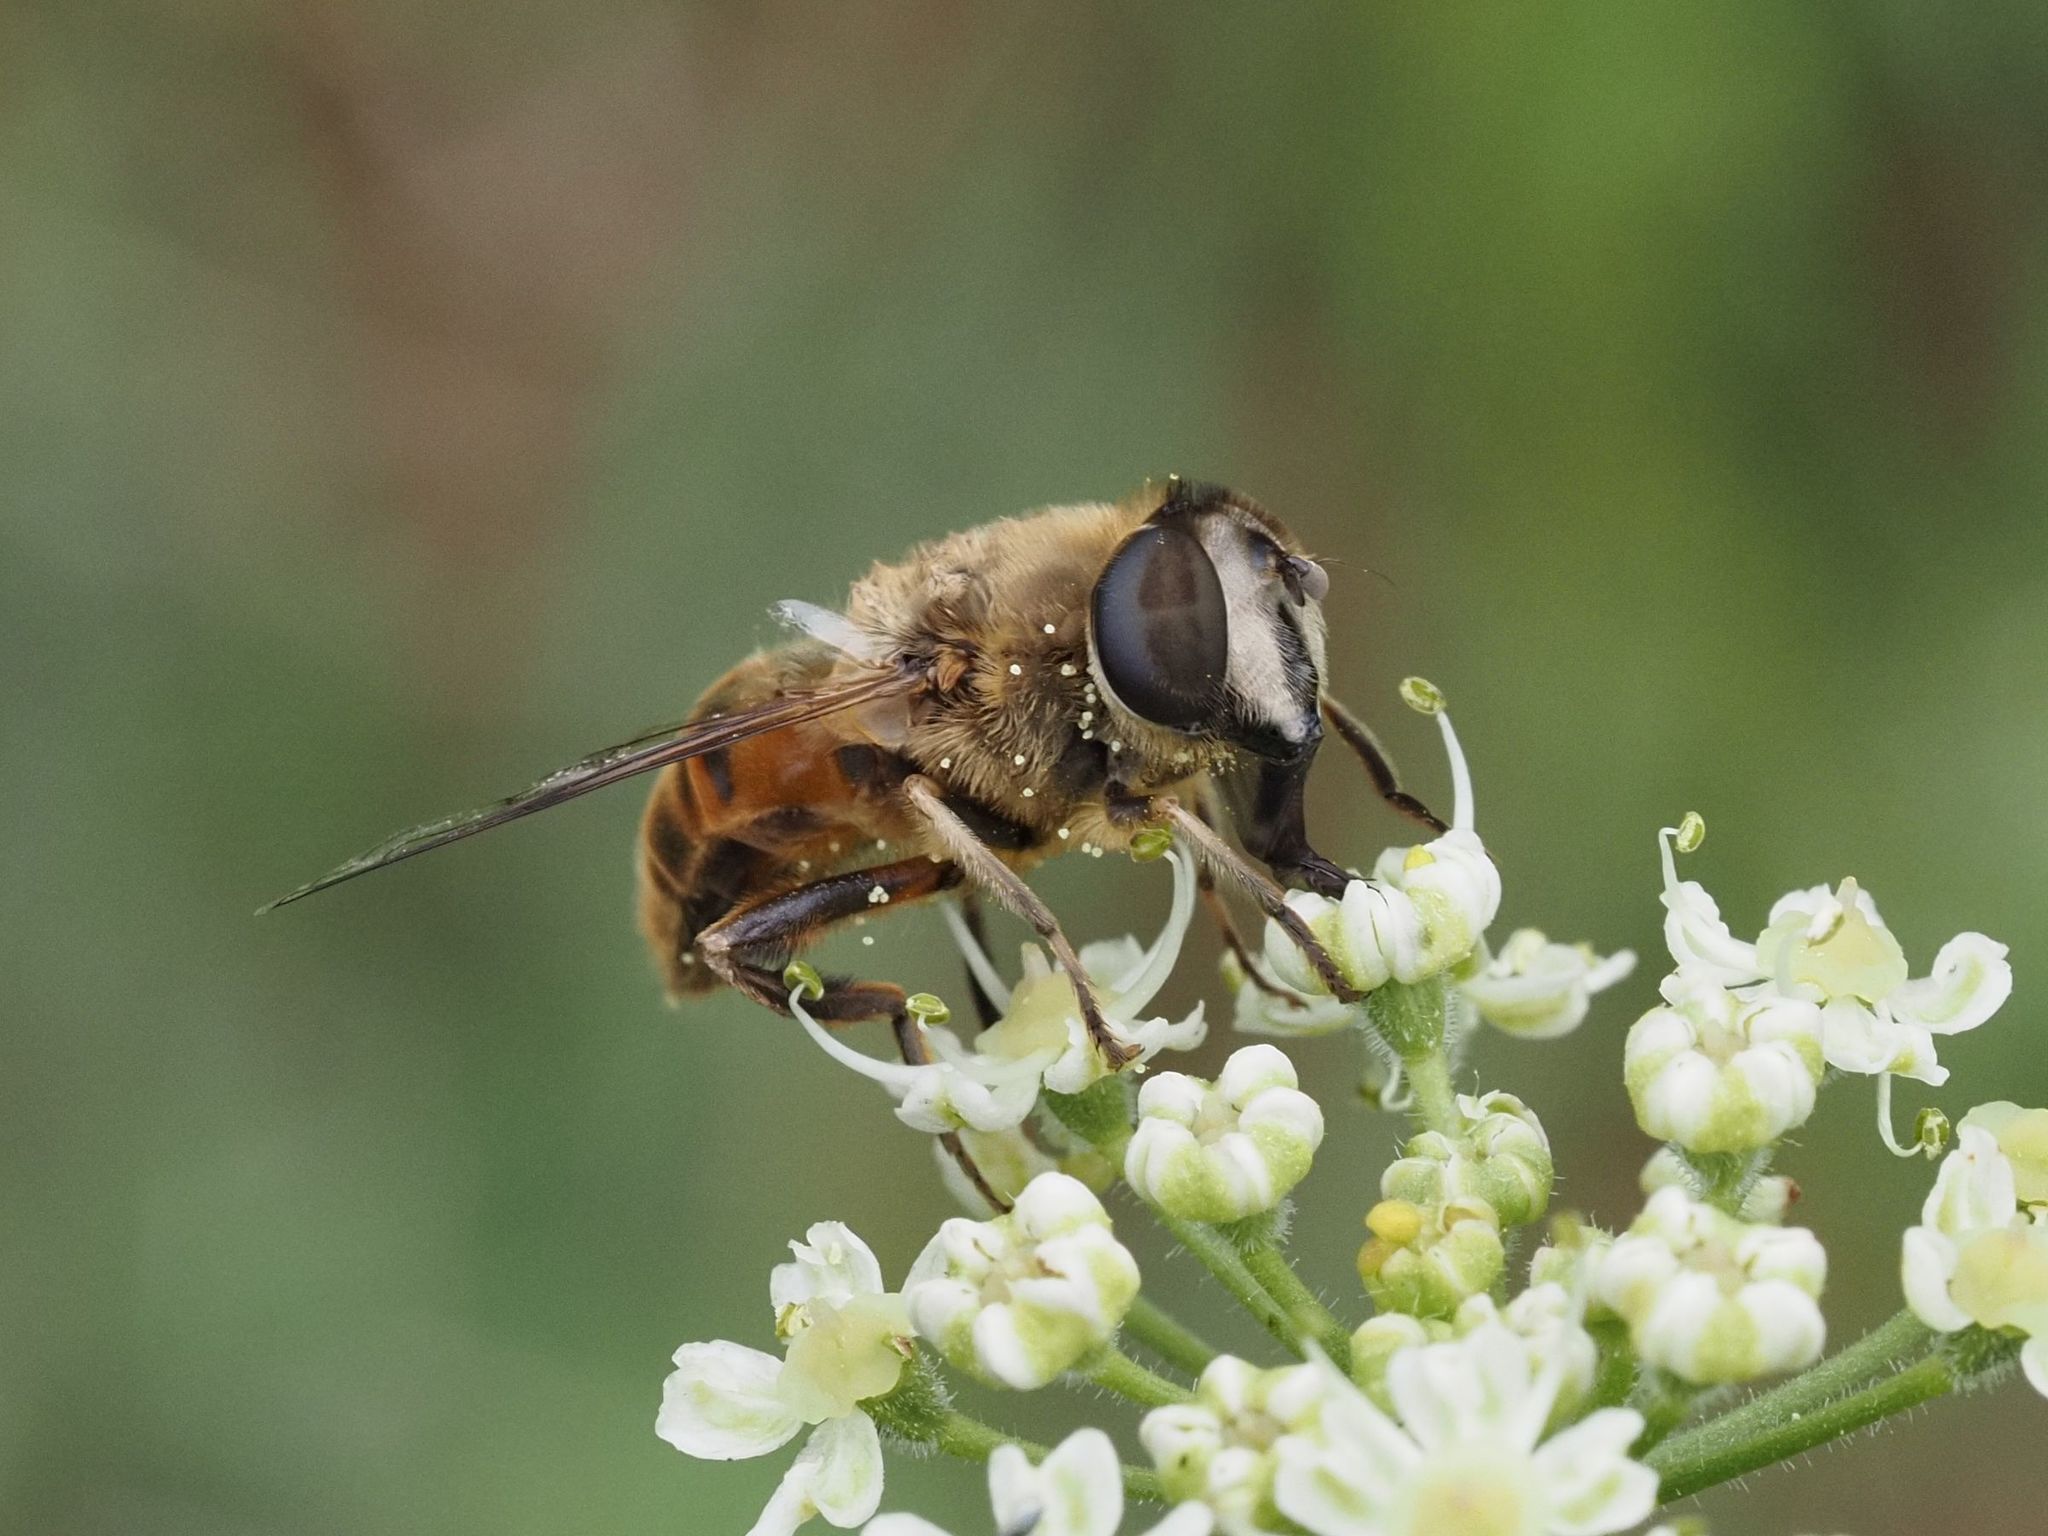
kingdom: Animalia
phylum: Arthropoda
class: Insecta
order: Diptera
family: Syrphidae
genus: Eristalis
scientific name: Eristalis tenax
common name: Drone fly
